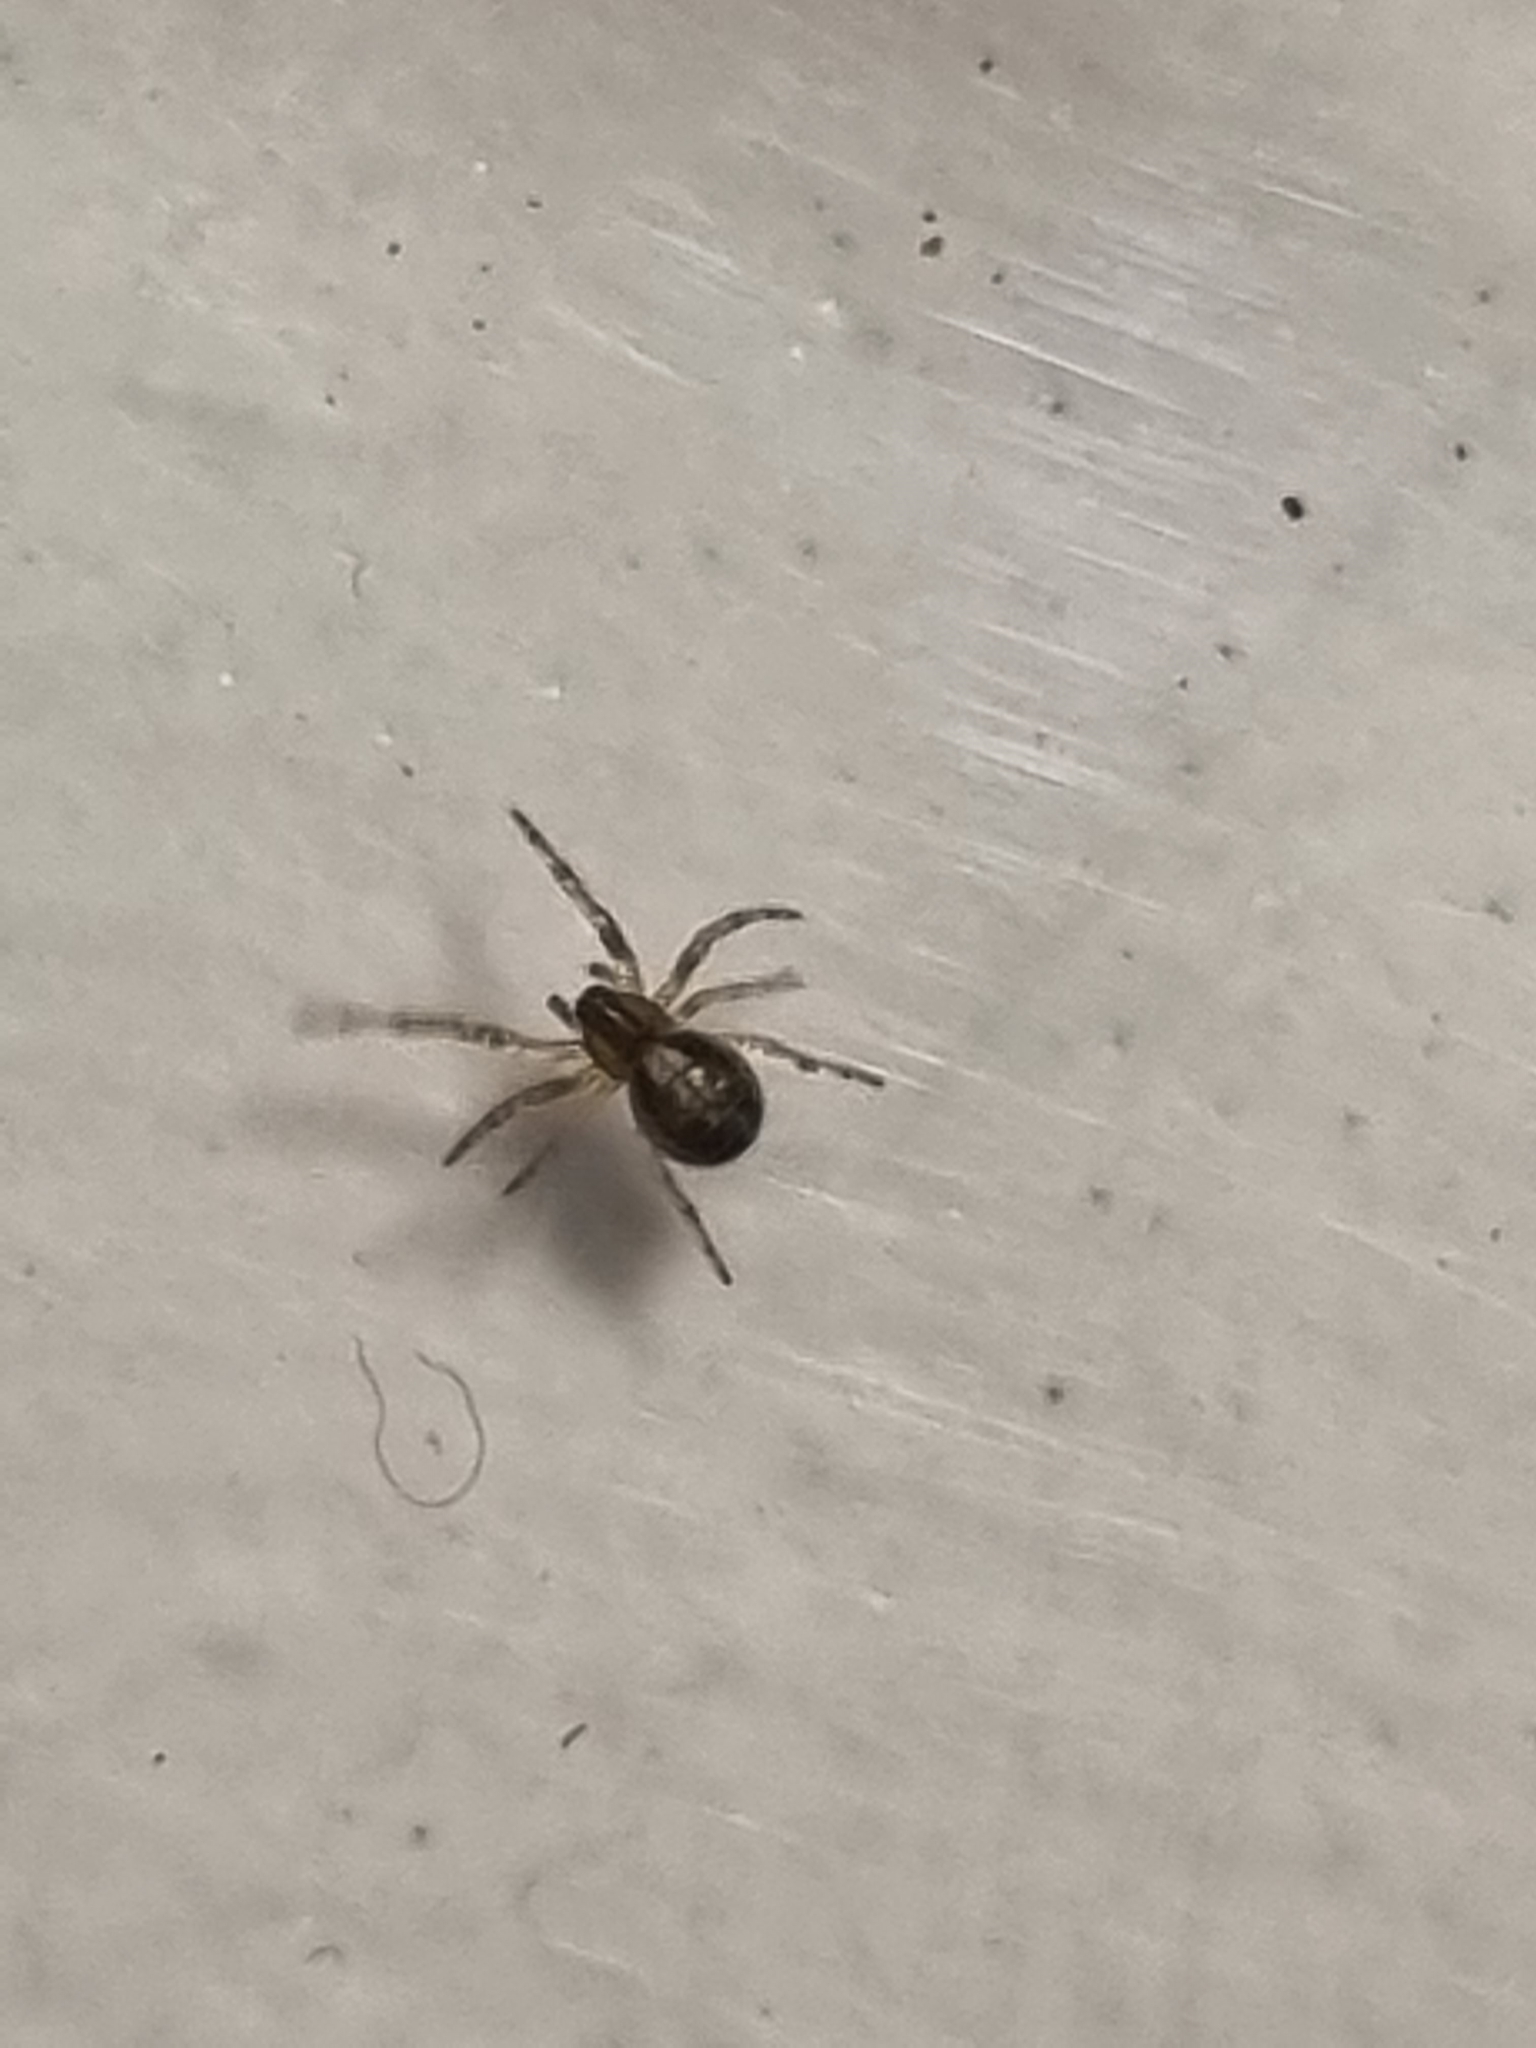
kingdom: Animalia
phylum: Arthropoda
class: Arachnida
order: Araneae
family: Araneidae
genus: Zygiella
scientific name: Zygiella x-notata
